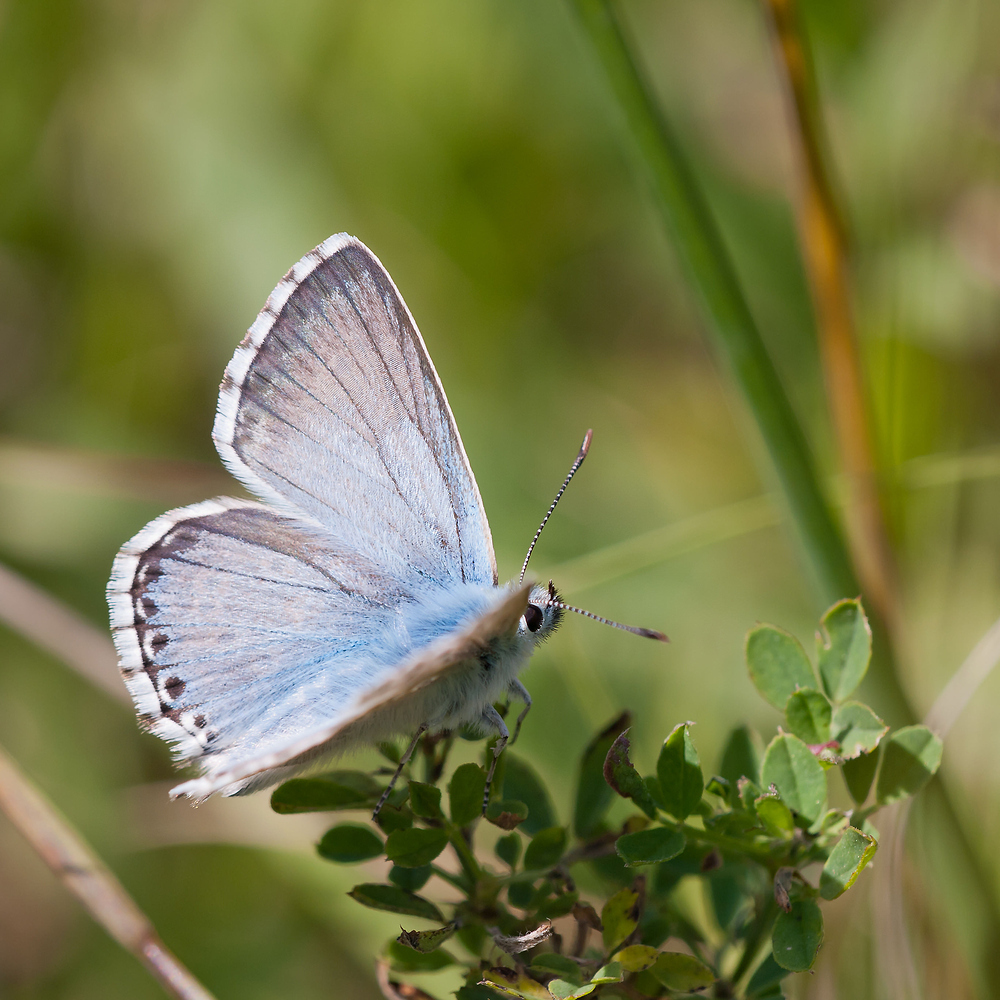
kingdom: Animalia
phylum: Arthropoda
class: Insecta
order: Lepidoptera
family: Lycaenidae
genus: Lysandra
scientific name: Lysandra coridon
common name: Chalkhill blue
